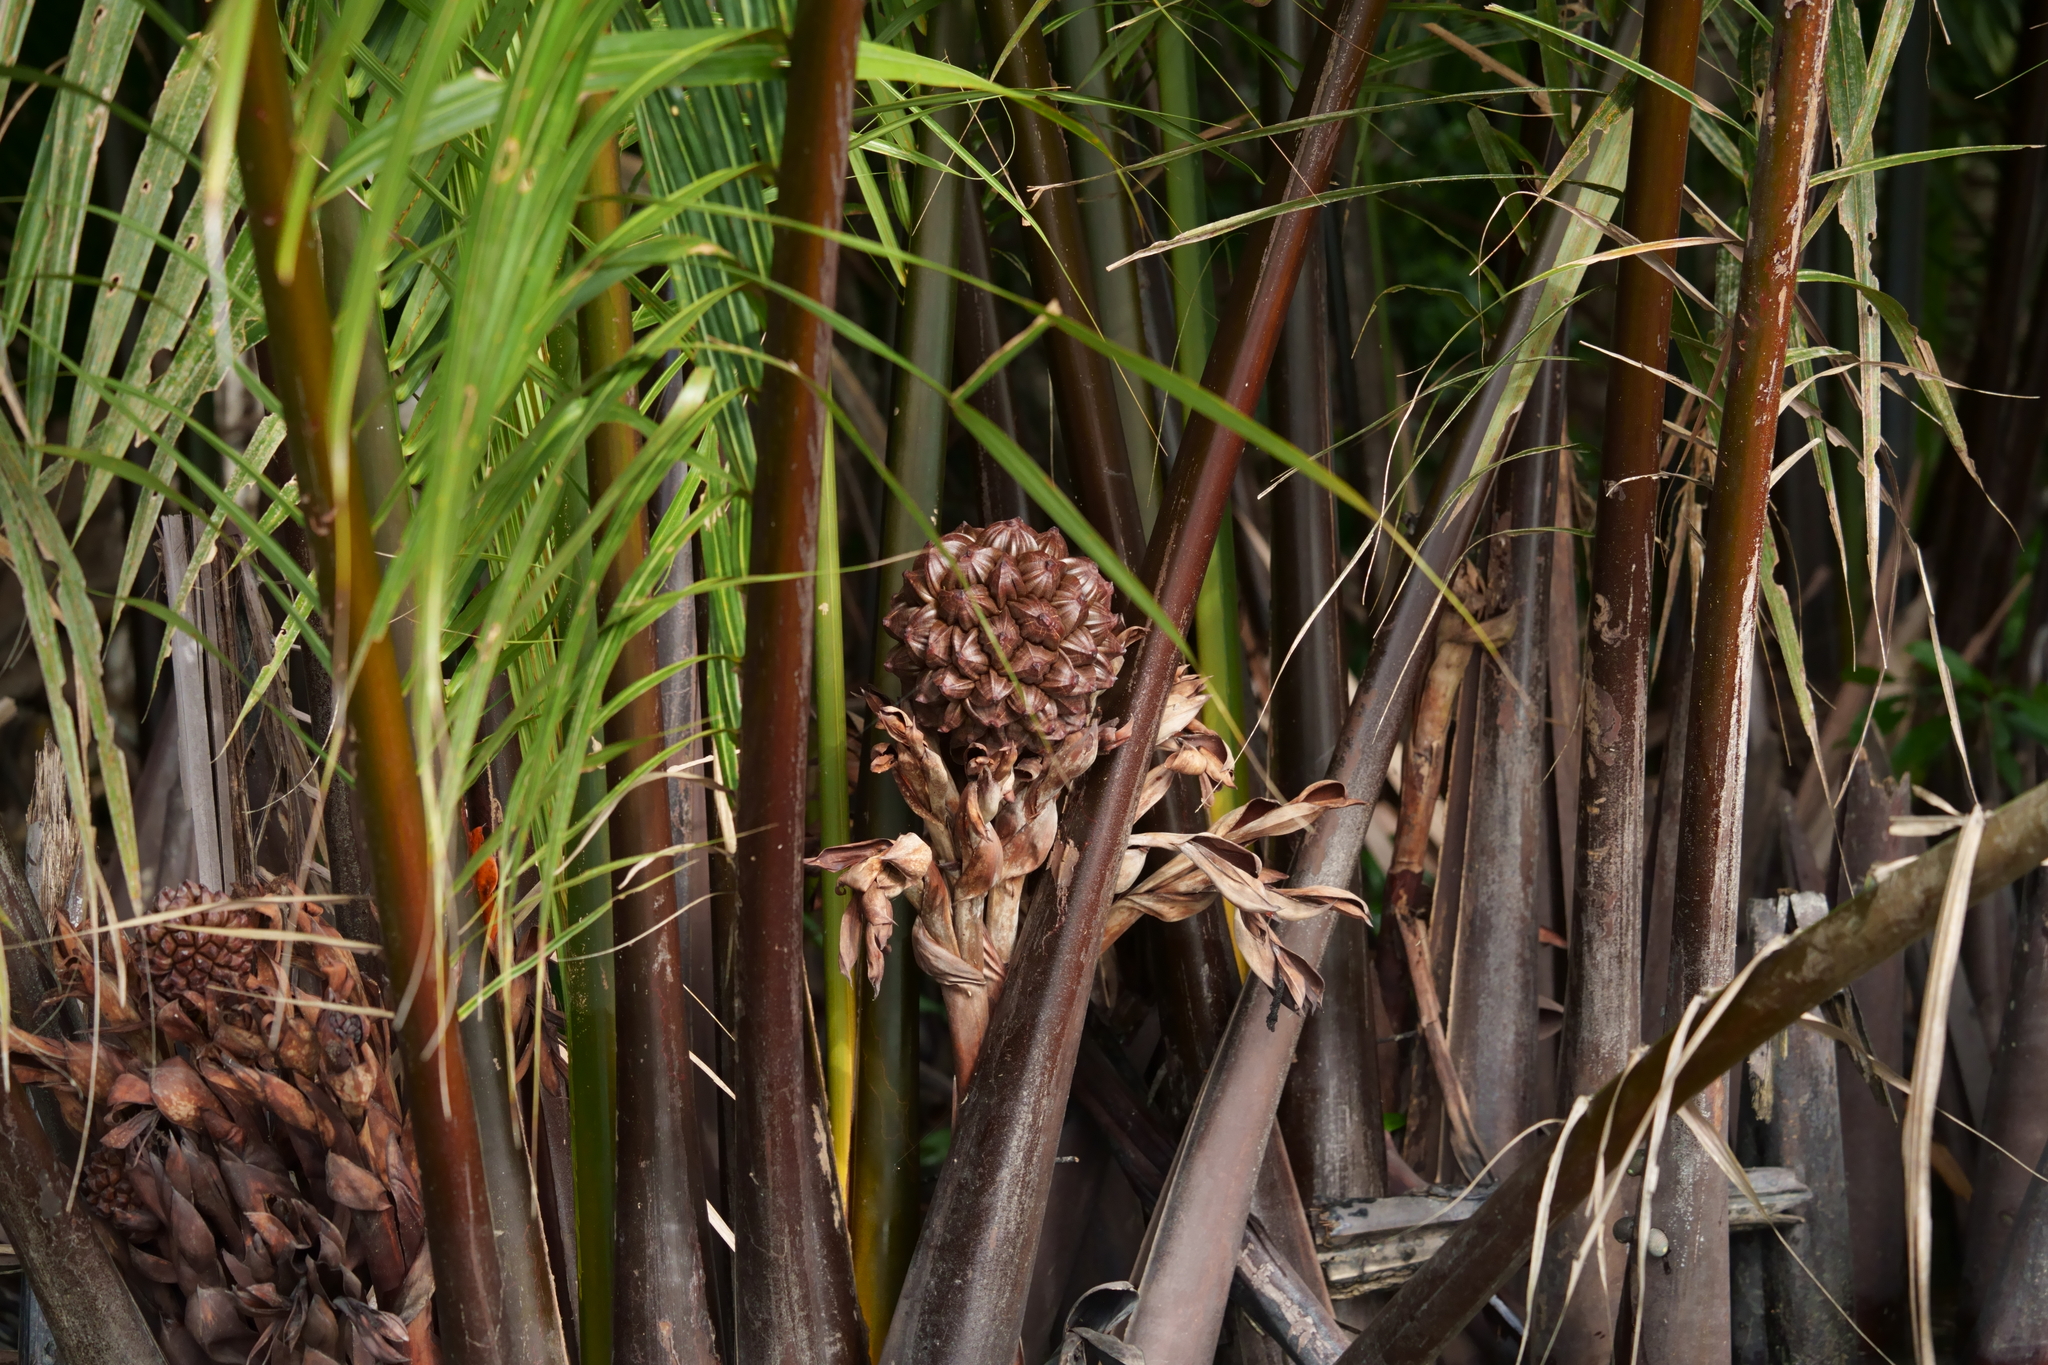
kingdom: Plantae
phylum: Tracheophyta
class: Liliopsida
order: Arecales
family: Arecaceae
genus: Nypa
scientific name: Nypa fruticans
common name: Mangrove palm
